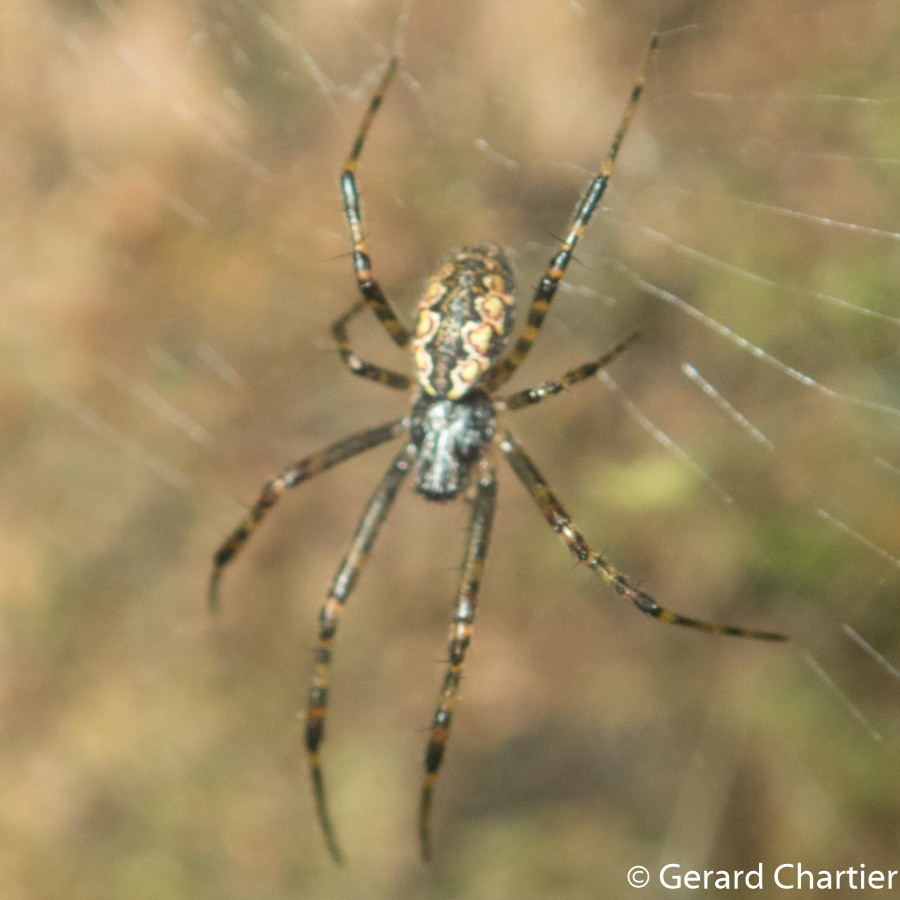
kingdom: Animalia
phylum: Arthropoda
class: Arachnida
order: Araneae
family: Araneidae
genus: Nephilengys
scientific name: Nephilengys malabarensis
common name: Asian hermit spider
